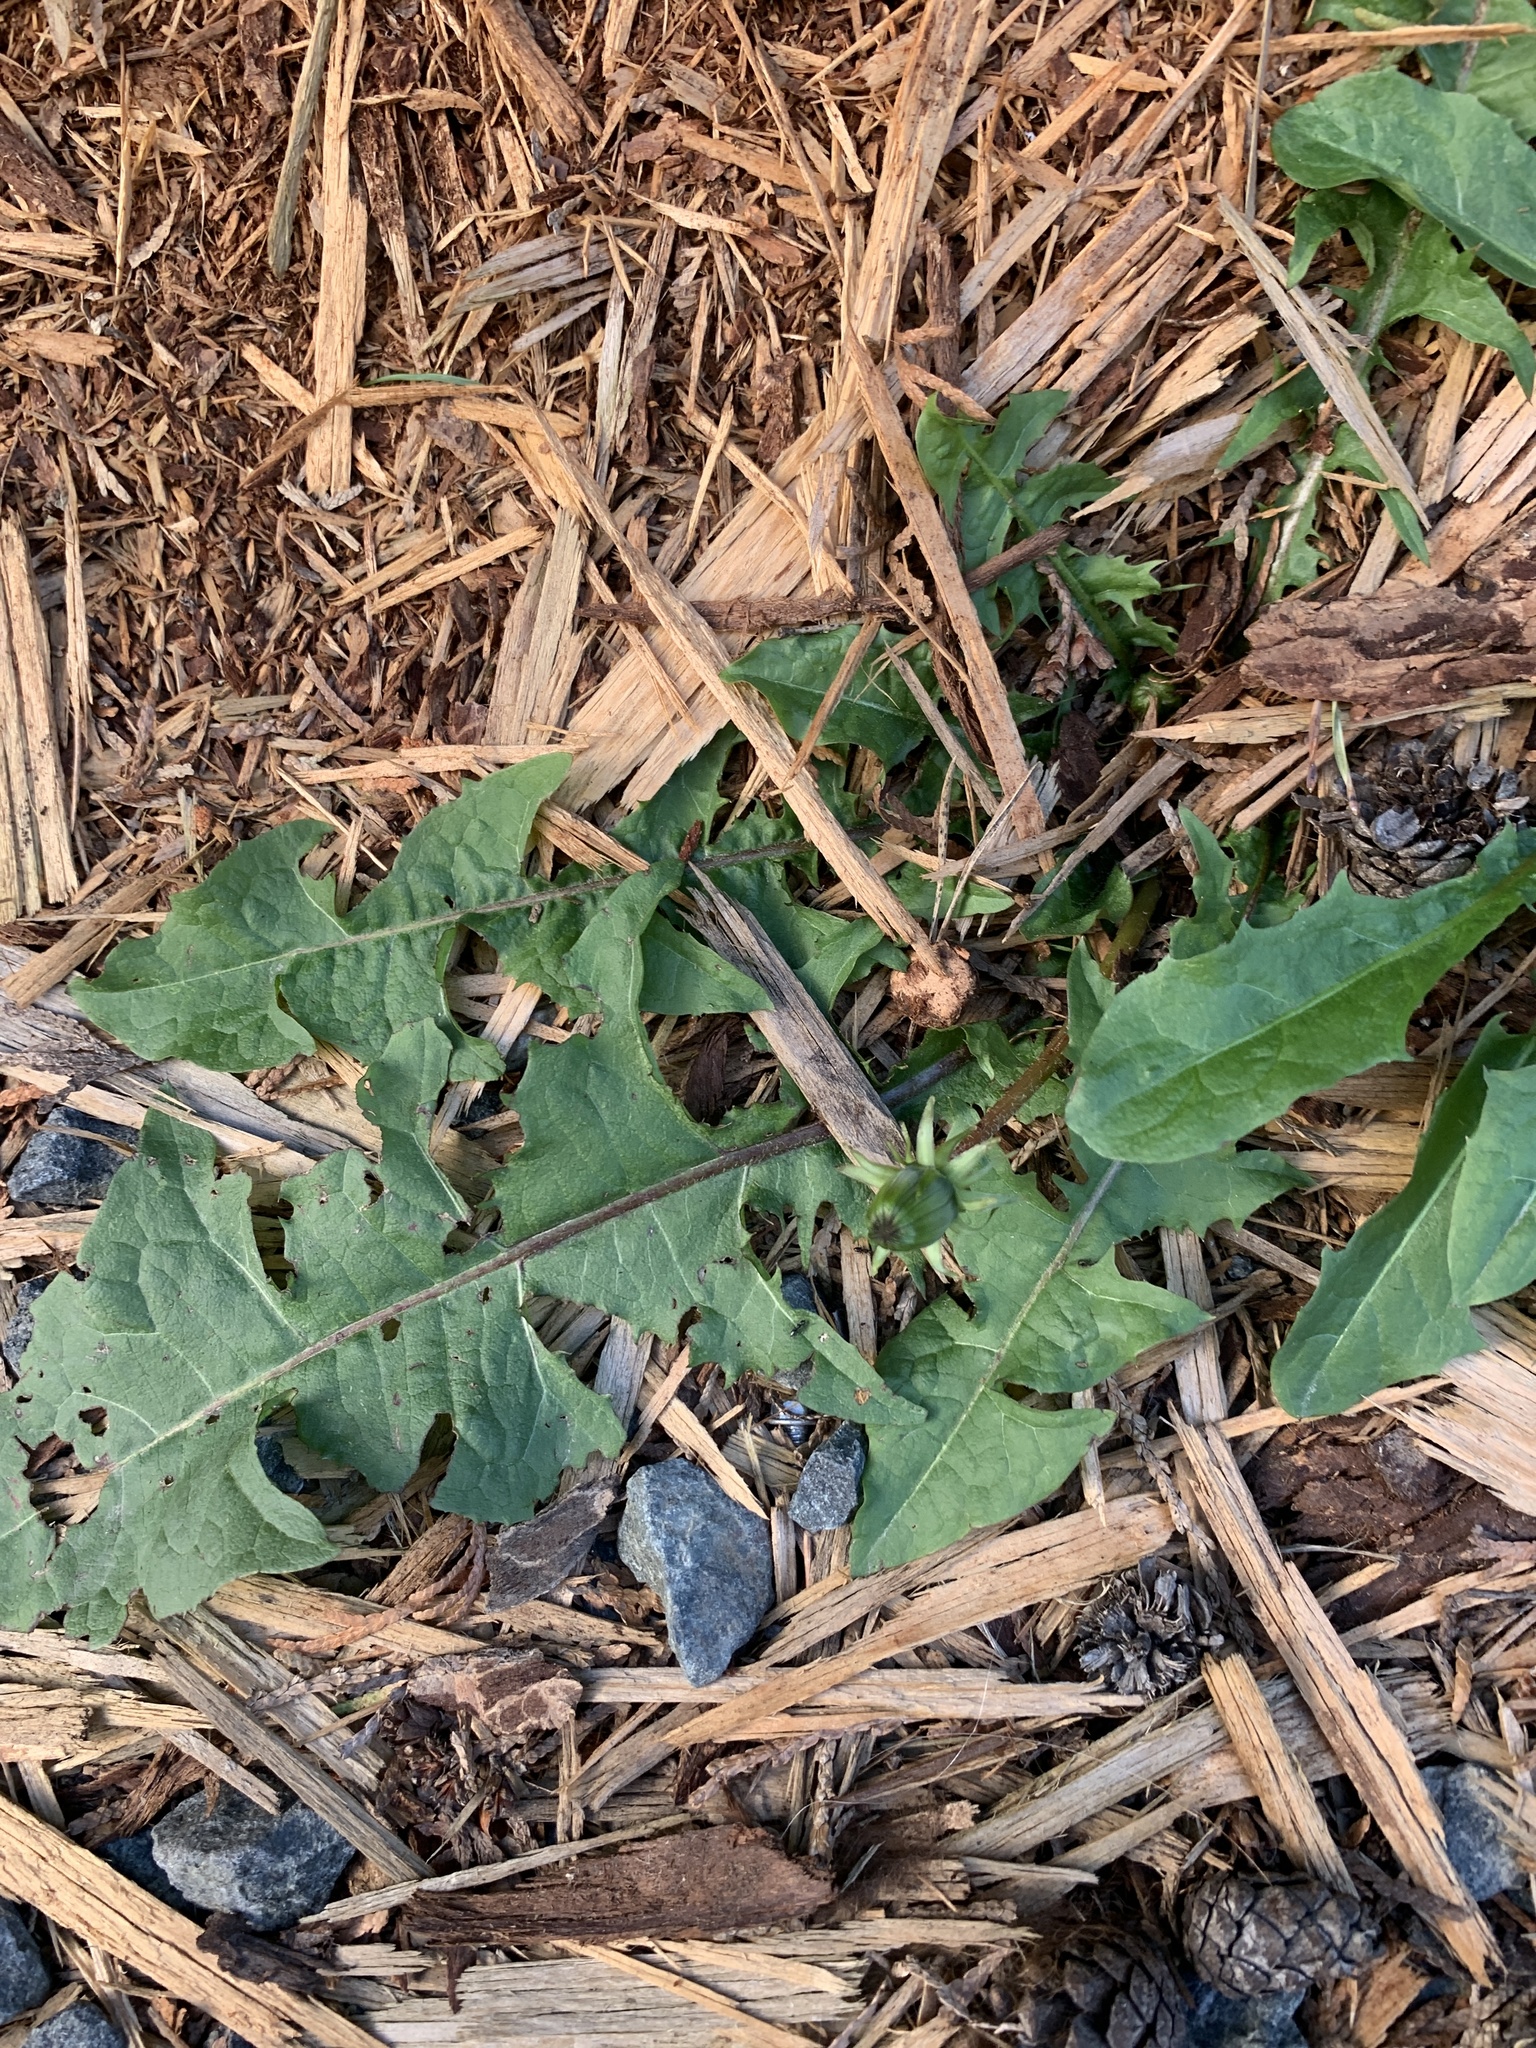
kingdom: Plantae
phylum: Tracheophyta
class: Magnoliopsida
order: Asterales
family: Asteraceae
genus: Taraxacum
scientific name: Taraxacum officinale
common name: Common dandelion
